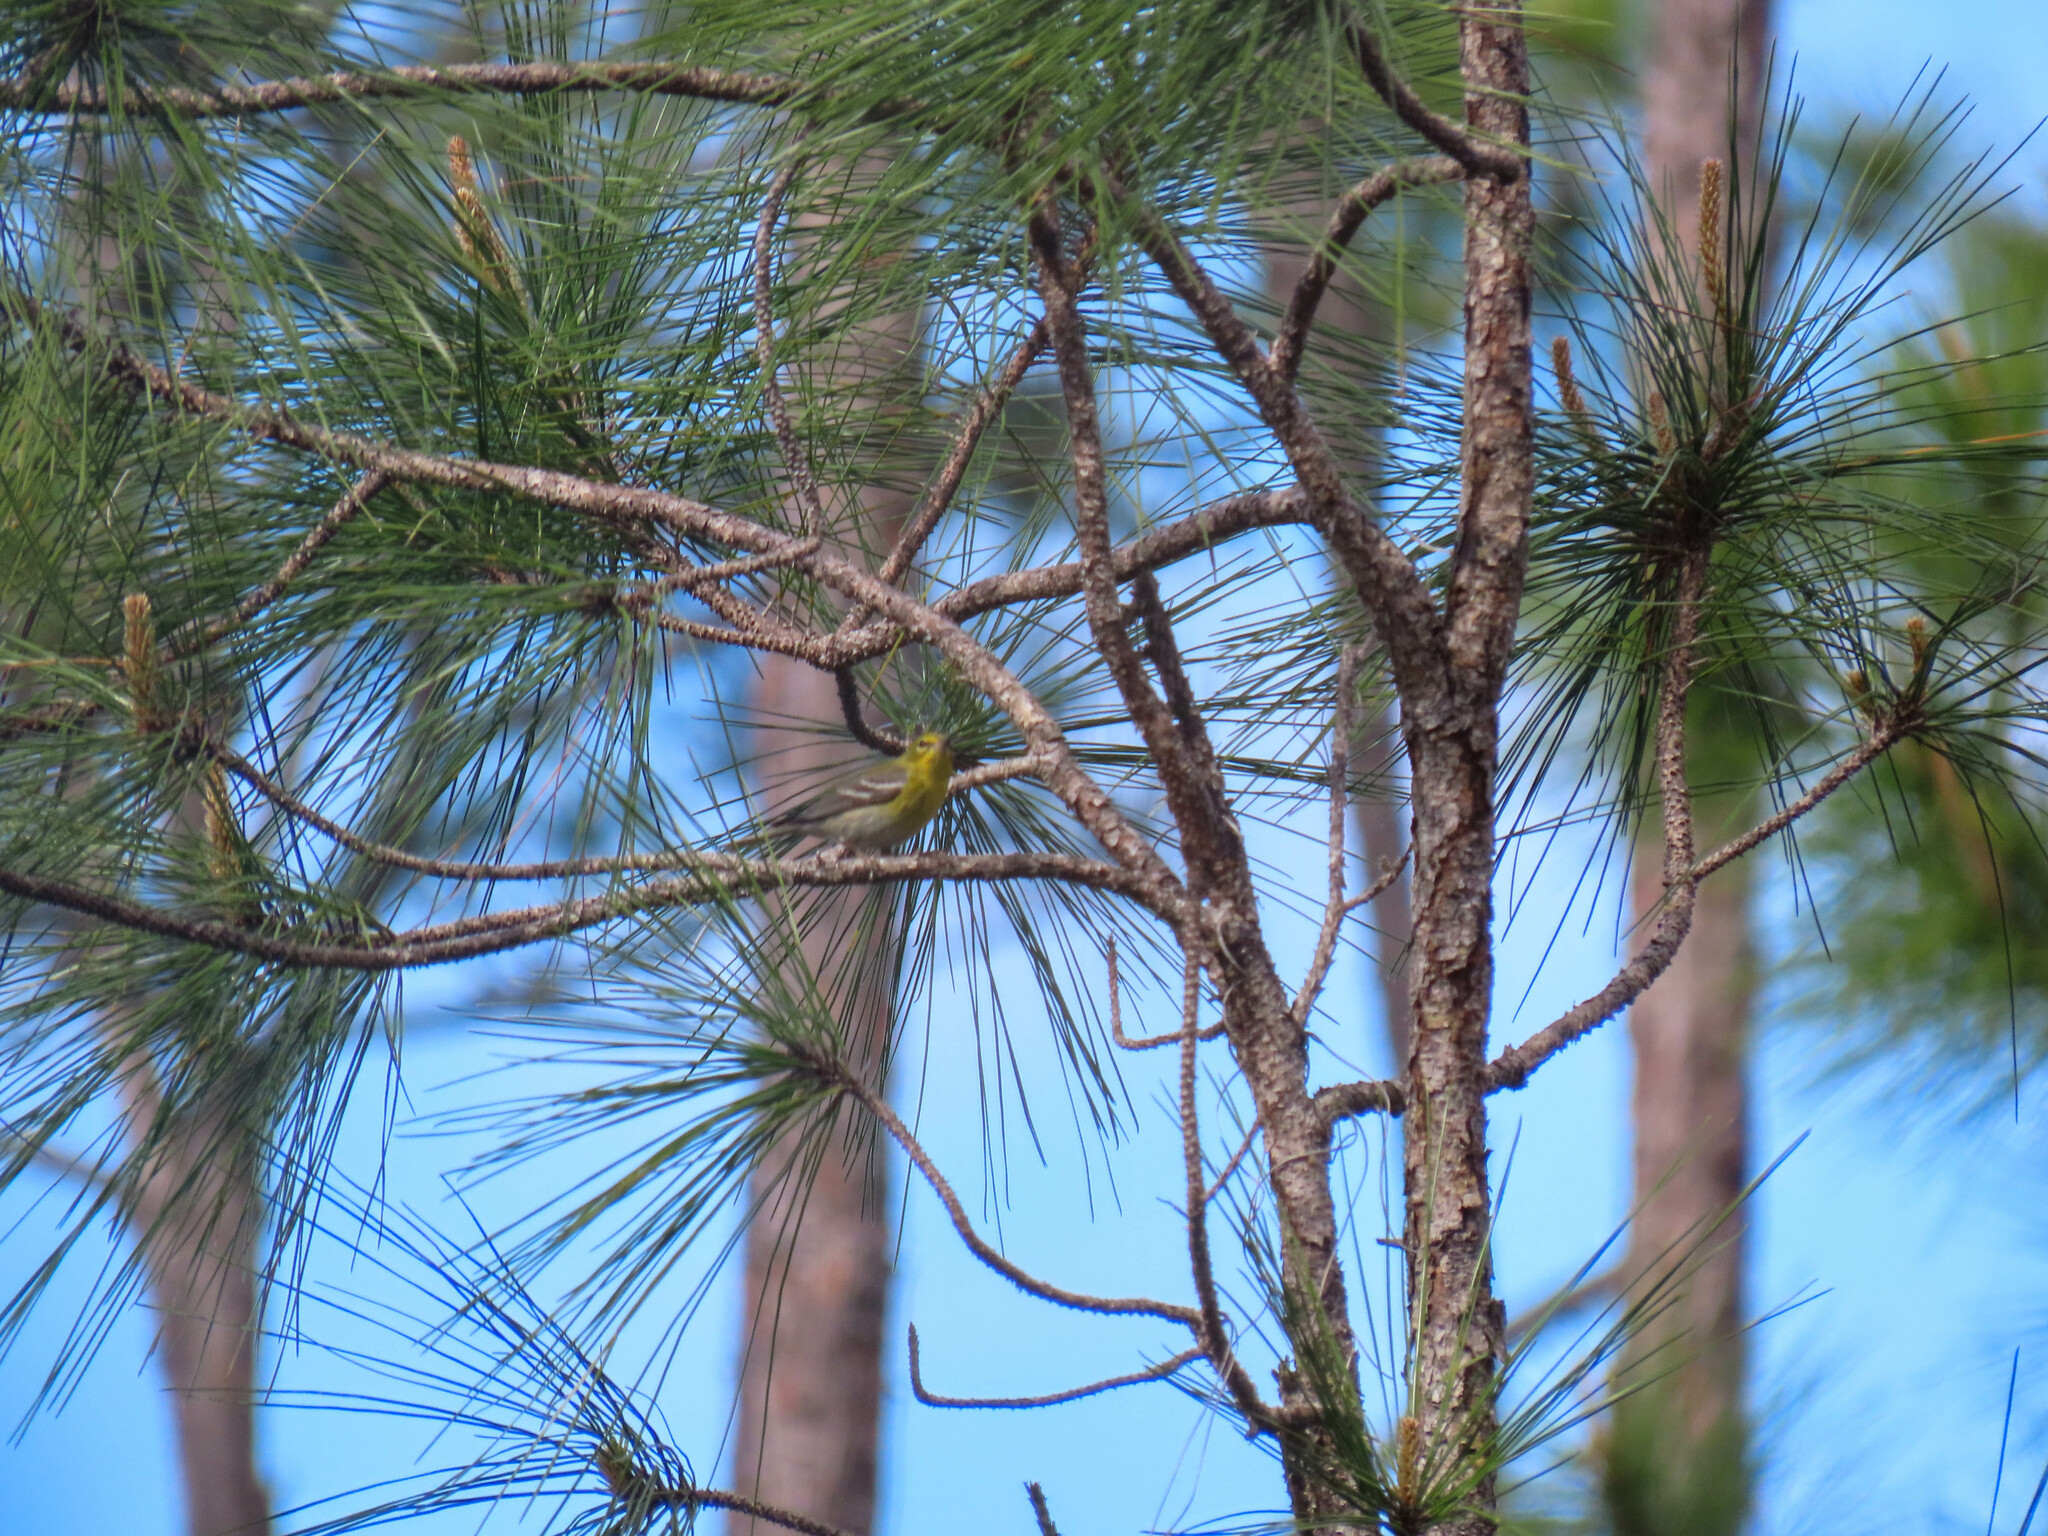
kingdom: Animalia
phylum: Chordata
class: Aves
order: Passeriformes
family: Parulidae
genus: Setophaga
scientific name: Setophaga pinus
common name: Pine warbler
